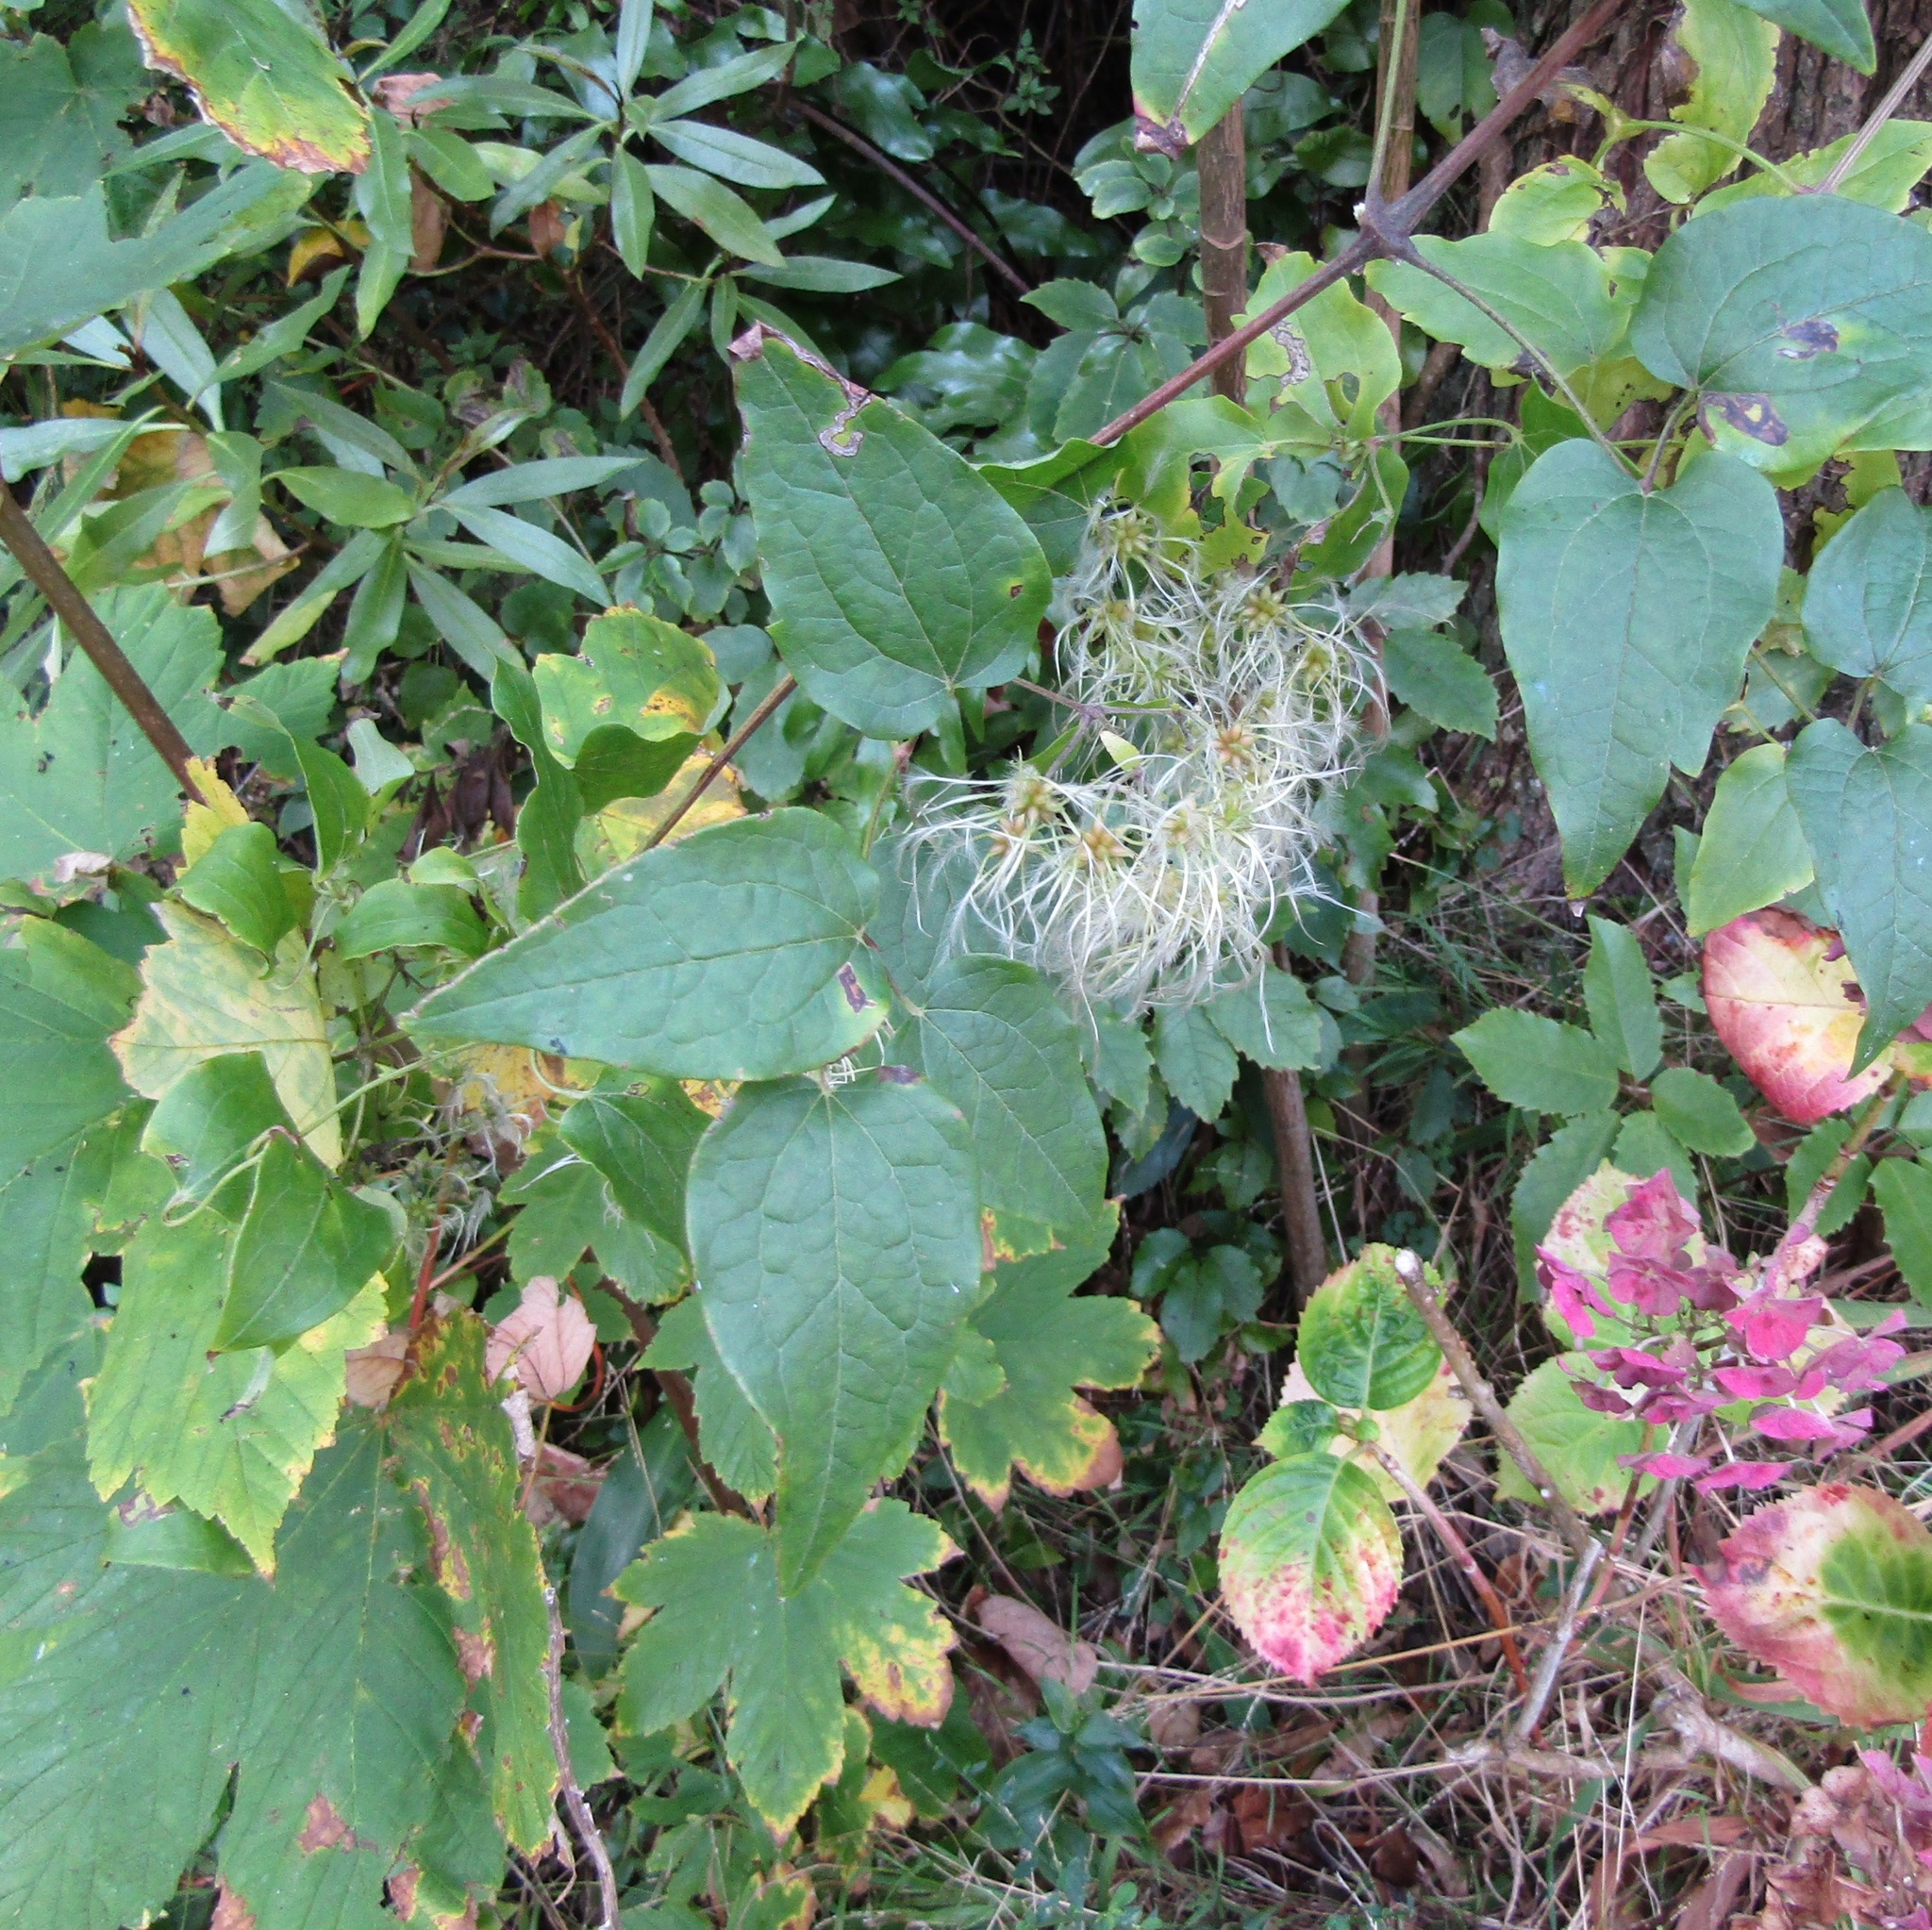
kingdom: Plantae
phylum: Tracheophyta
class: Magnoliopsida
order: Ranunculales
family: Ranunculaceae
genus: Clematis
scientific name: Clematis vitalba
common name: Evergreen clematis
